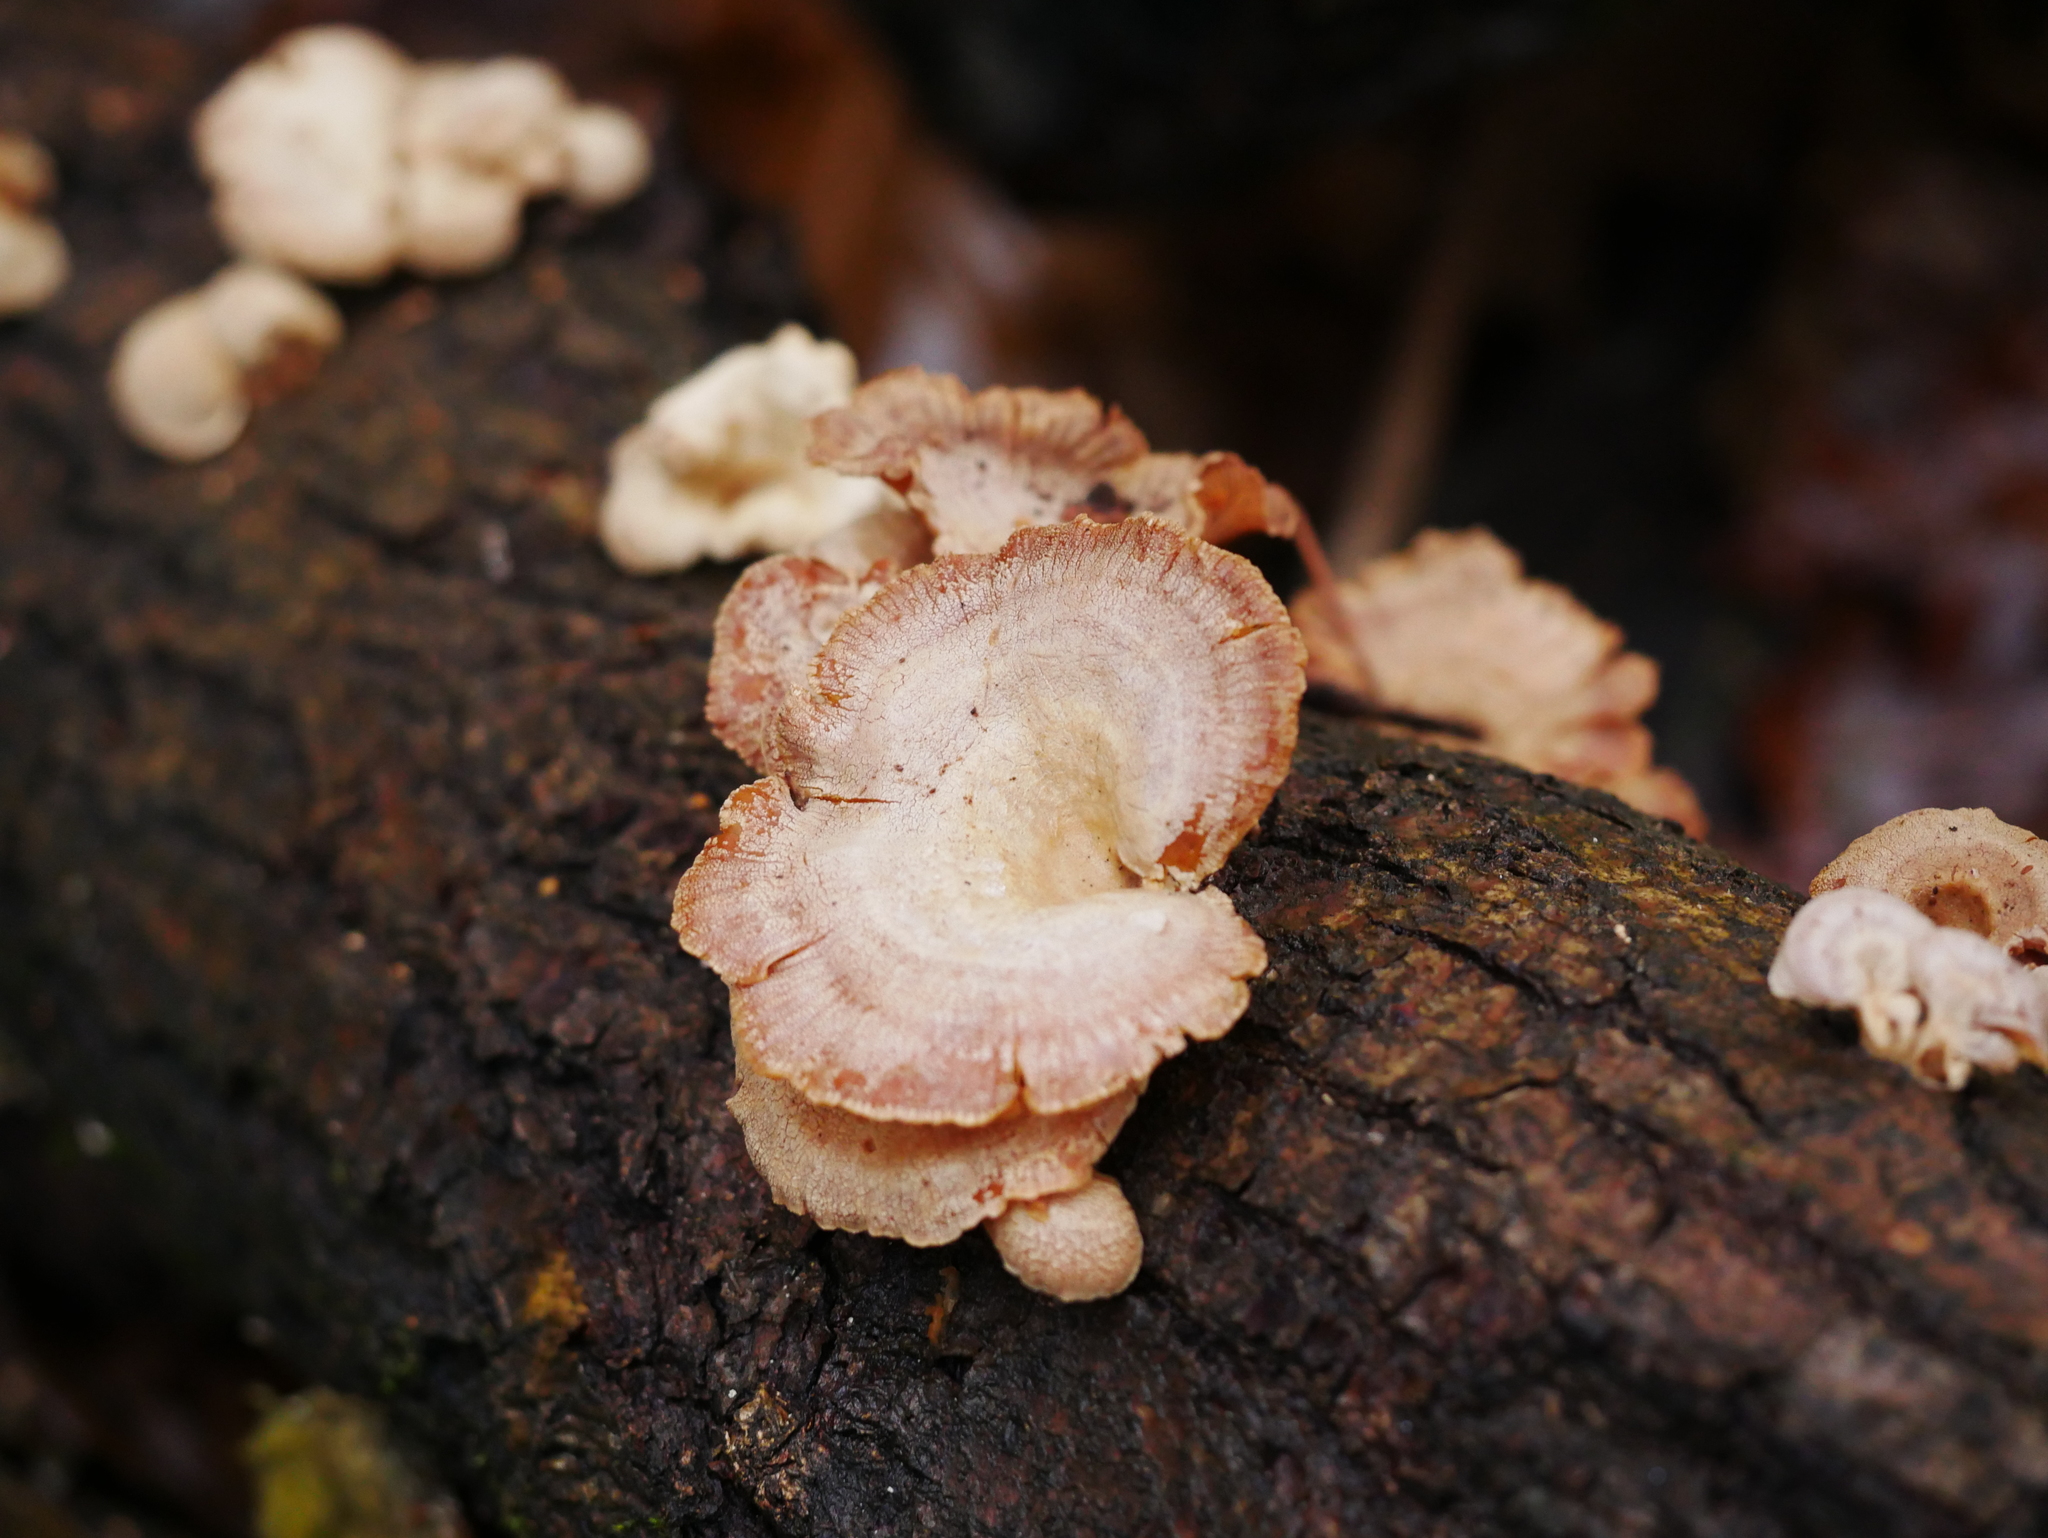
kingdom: Fungi
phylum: Basidiomycota
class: Agaricomycetes
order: Agaricales
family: Mycenaceae
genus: Panellus
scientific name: Panellus stipticus
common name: Bitter oysterling
